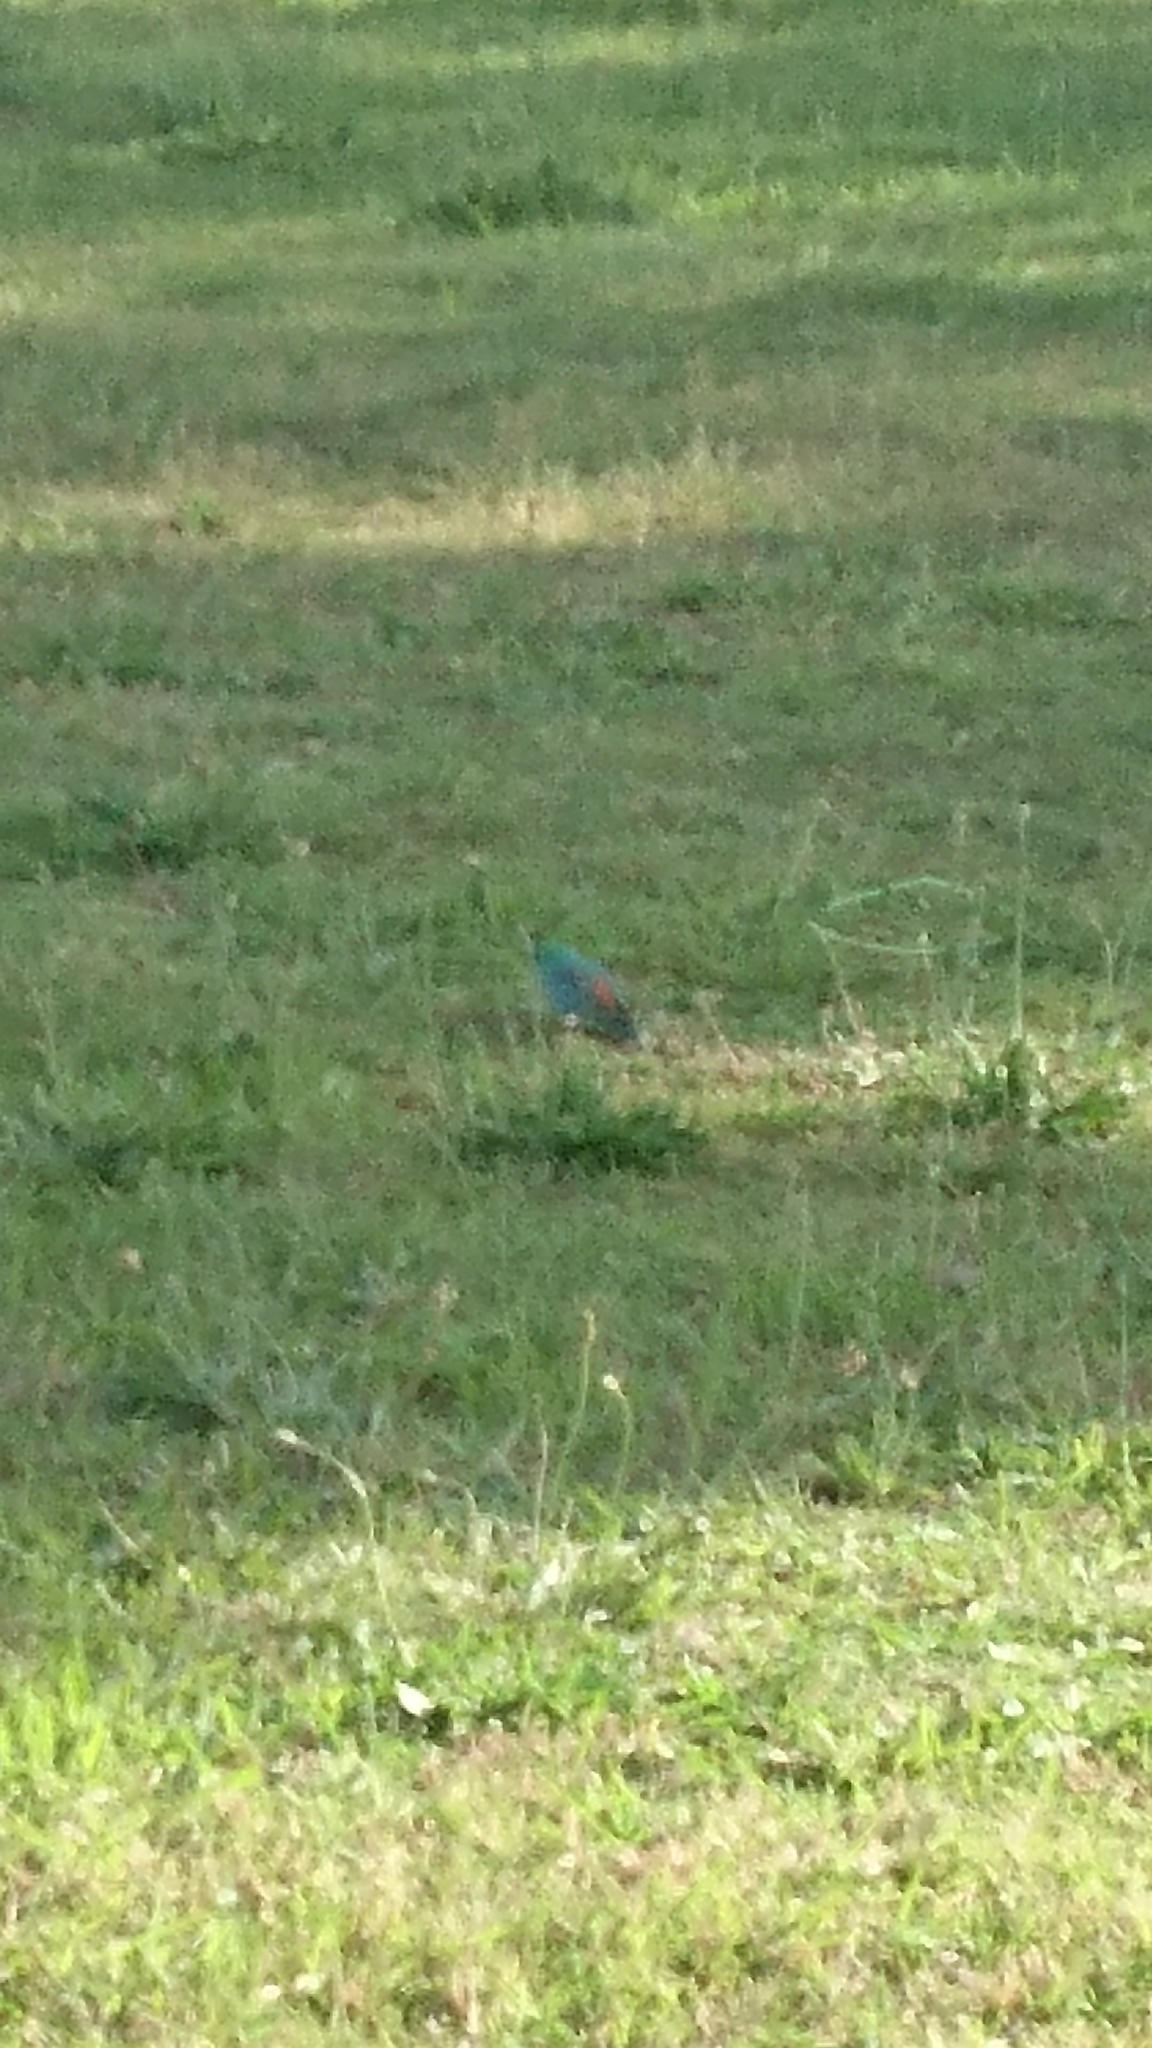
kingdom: Animalia
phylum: Chordata
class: Aves
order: Psittaciformes
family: Psittacidae
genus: Psephotus
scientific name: Psephotus haematonotus
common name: Red-rumped parrot
